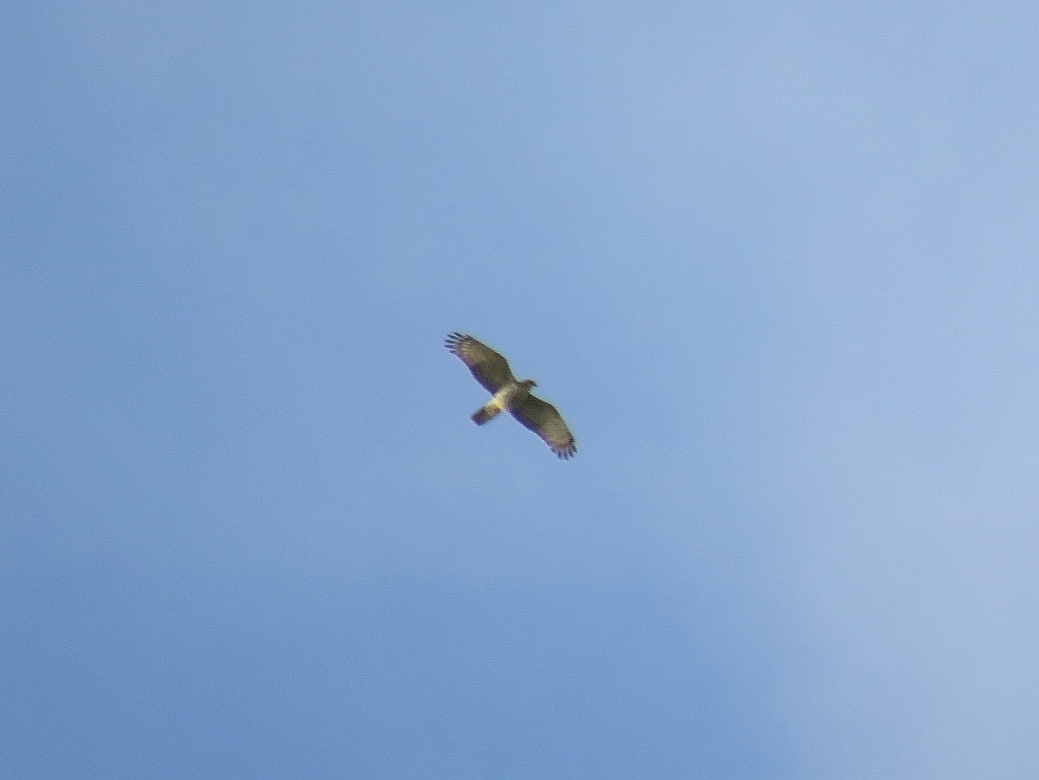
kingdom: Animalia
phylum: Chordata
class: Aves
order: Accipitriformes
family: Accipitridae
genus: Aviceda
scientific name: Aviceda cuculoides
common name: African cuckoo-hawk
